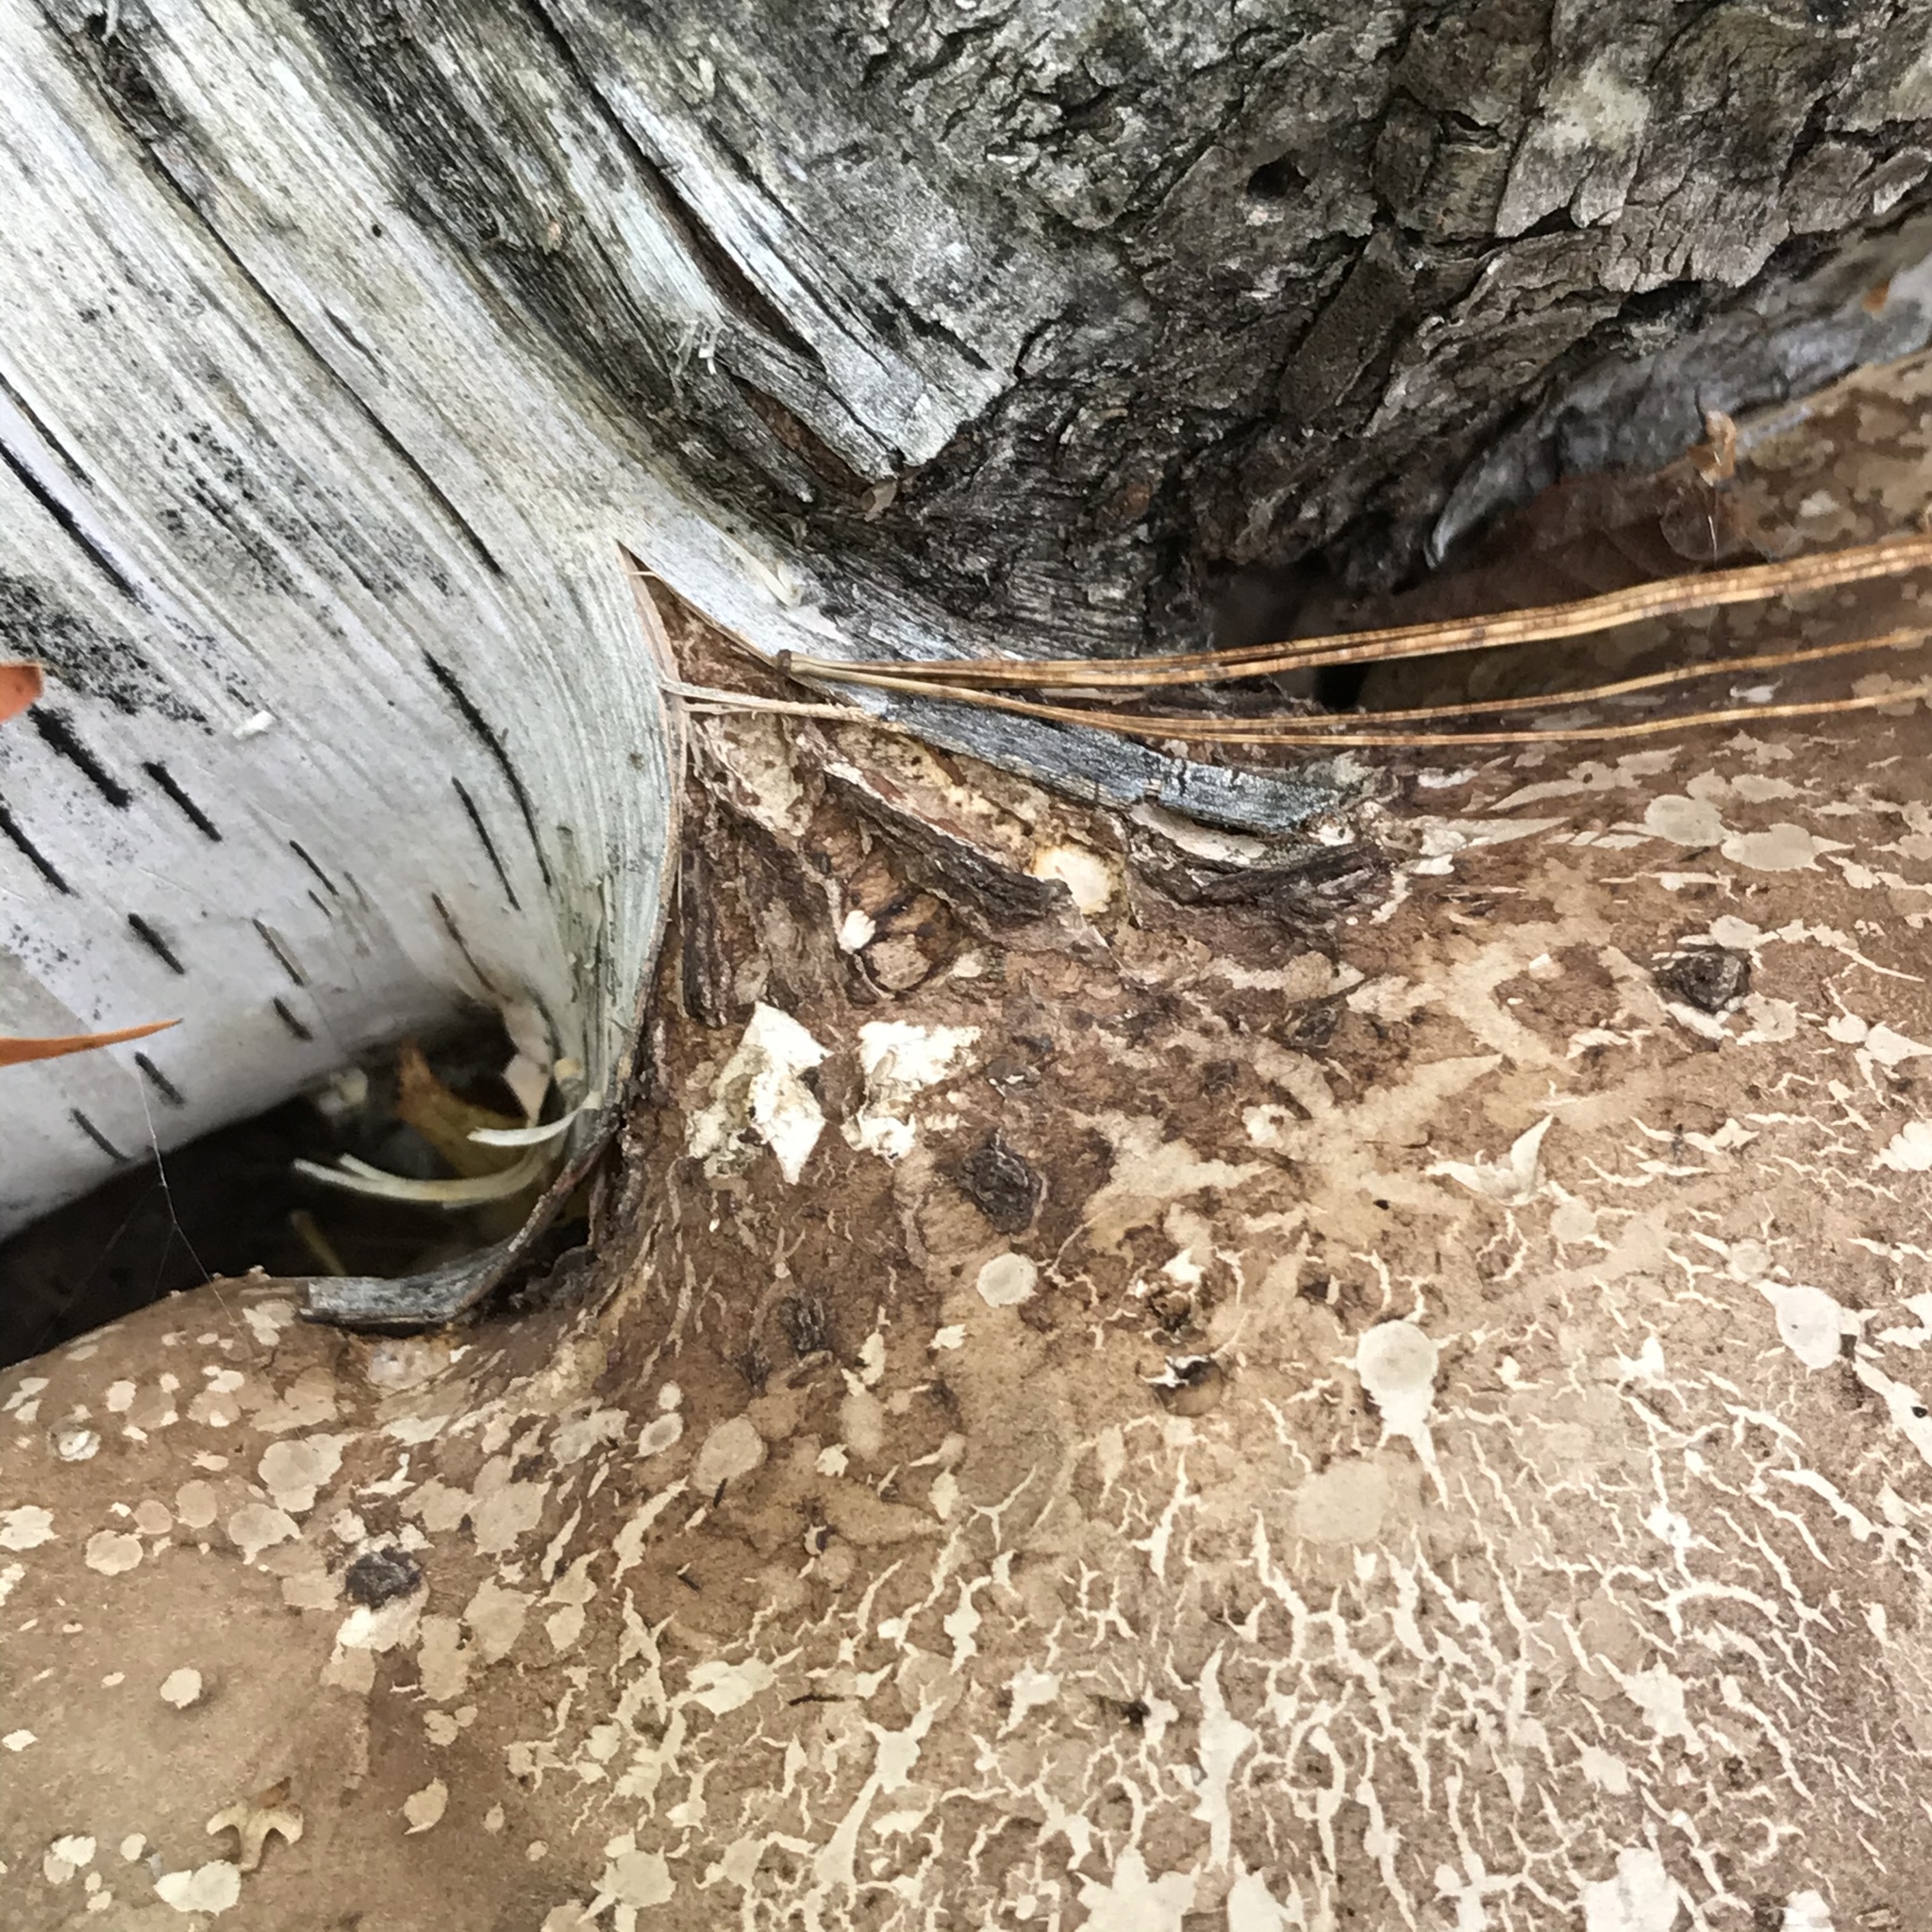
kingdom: Fungi
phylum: Basidiomycota
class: Agaricomycetes
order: Polyporales
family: Fomitopsidaceae
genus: Fomitopsis
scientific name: Fomitopsis betulina
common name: Birch polypore
